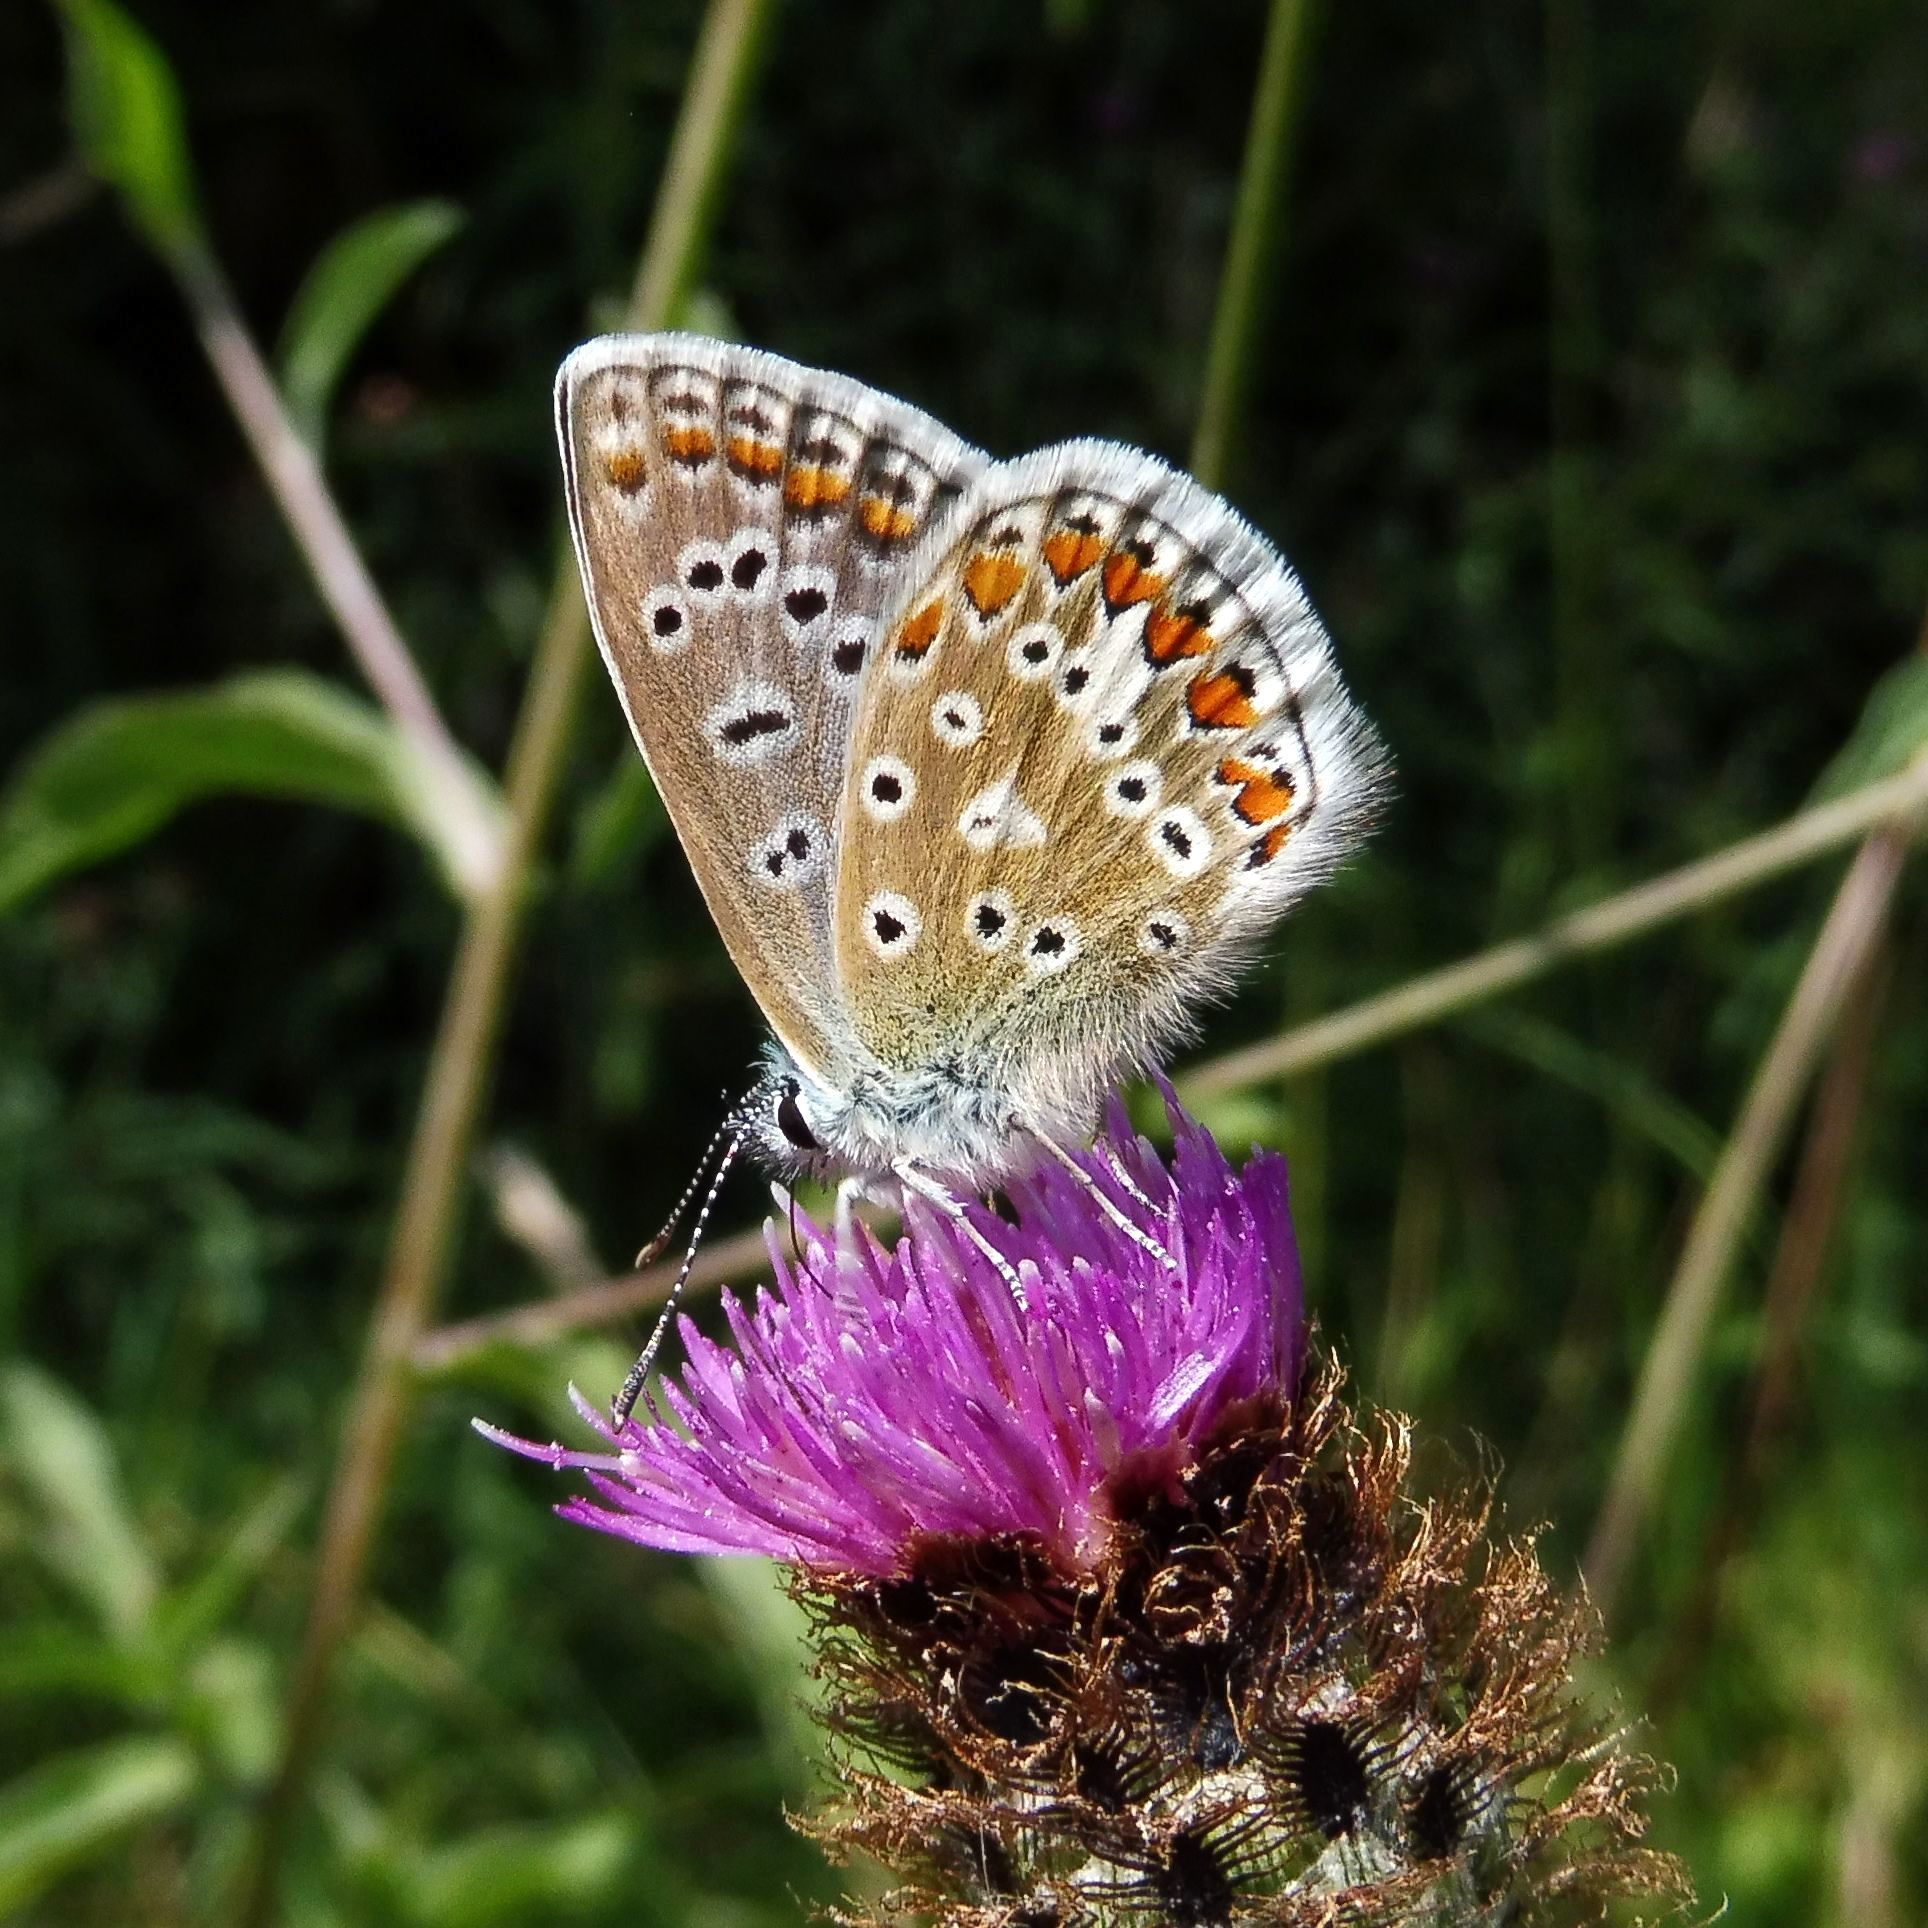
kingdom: Animalia
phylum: Arthropoda
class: Insecta
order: Lepidoptera
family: Lycaenidae
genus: Polyommatus
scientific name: Polyommatus icarus
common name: Common blue
